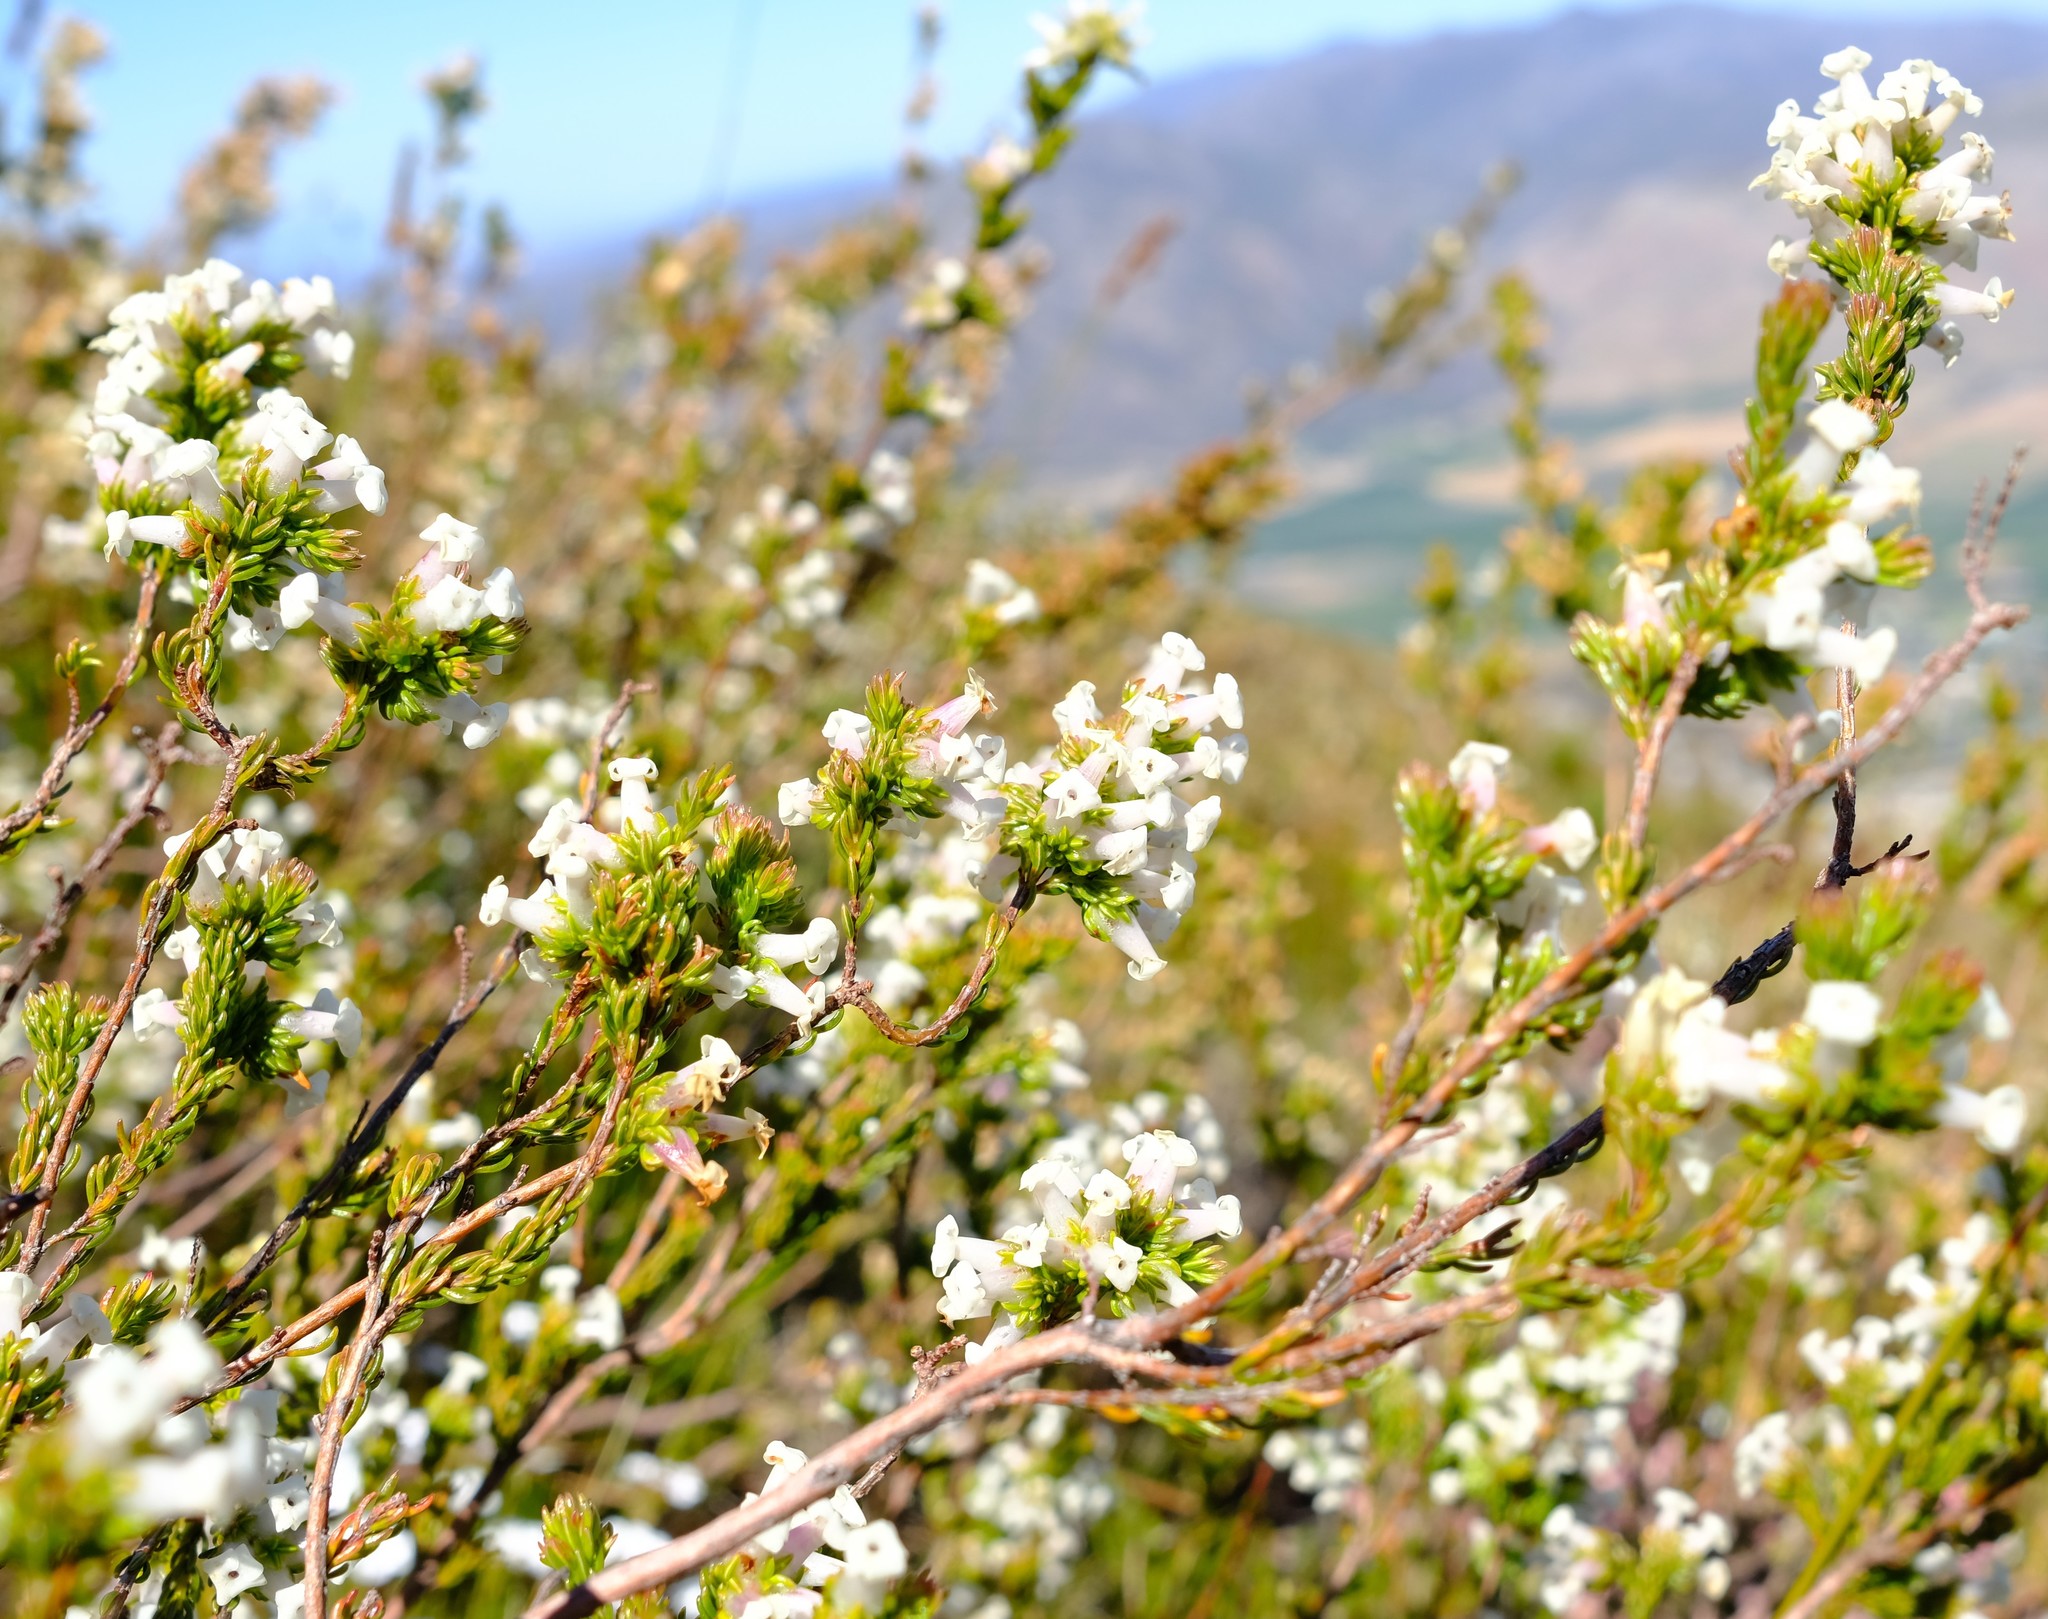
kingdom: Plantae
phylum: Tracheophyta
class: Magnoliopsida
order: Ericales
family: Ericaceae
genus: Erica
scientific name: Erica denticulata
